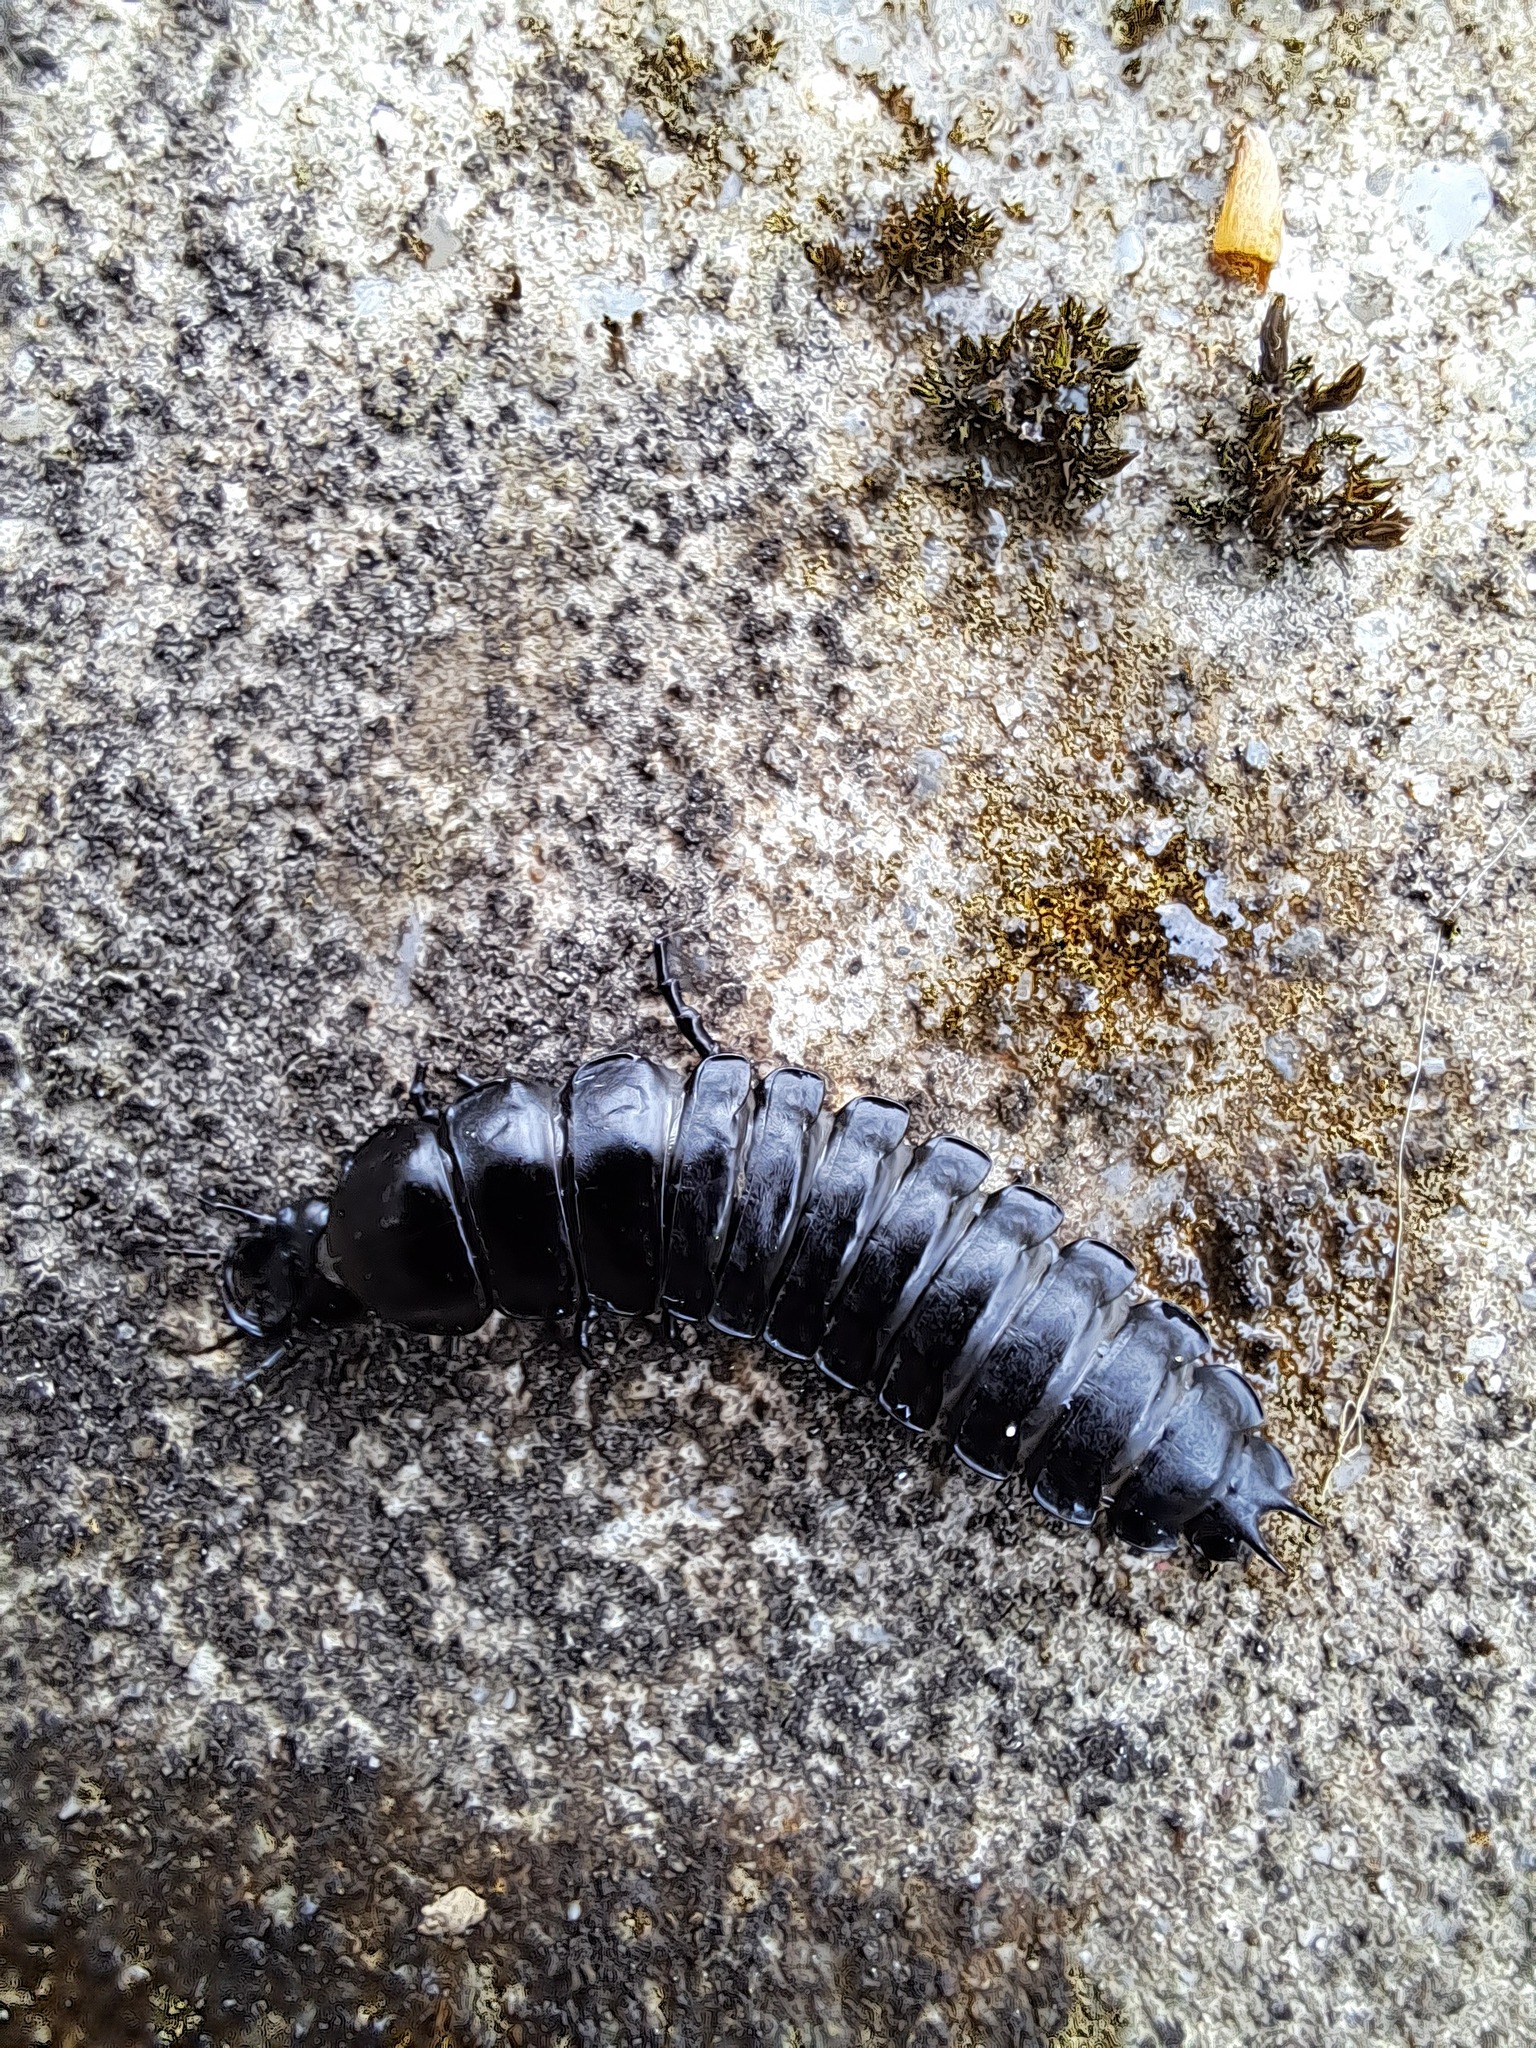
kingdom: Animalia
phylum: Arthropoda
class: Insecta
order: Coleoptera
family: Carabidae
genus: Carabus
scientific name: Carabus
